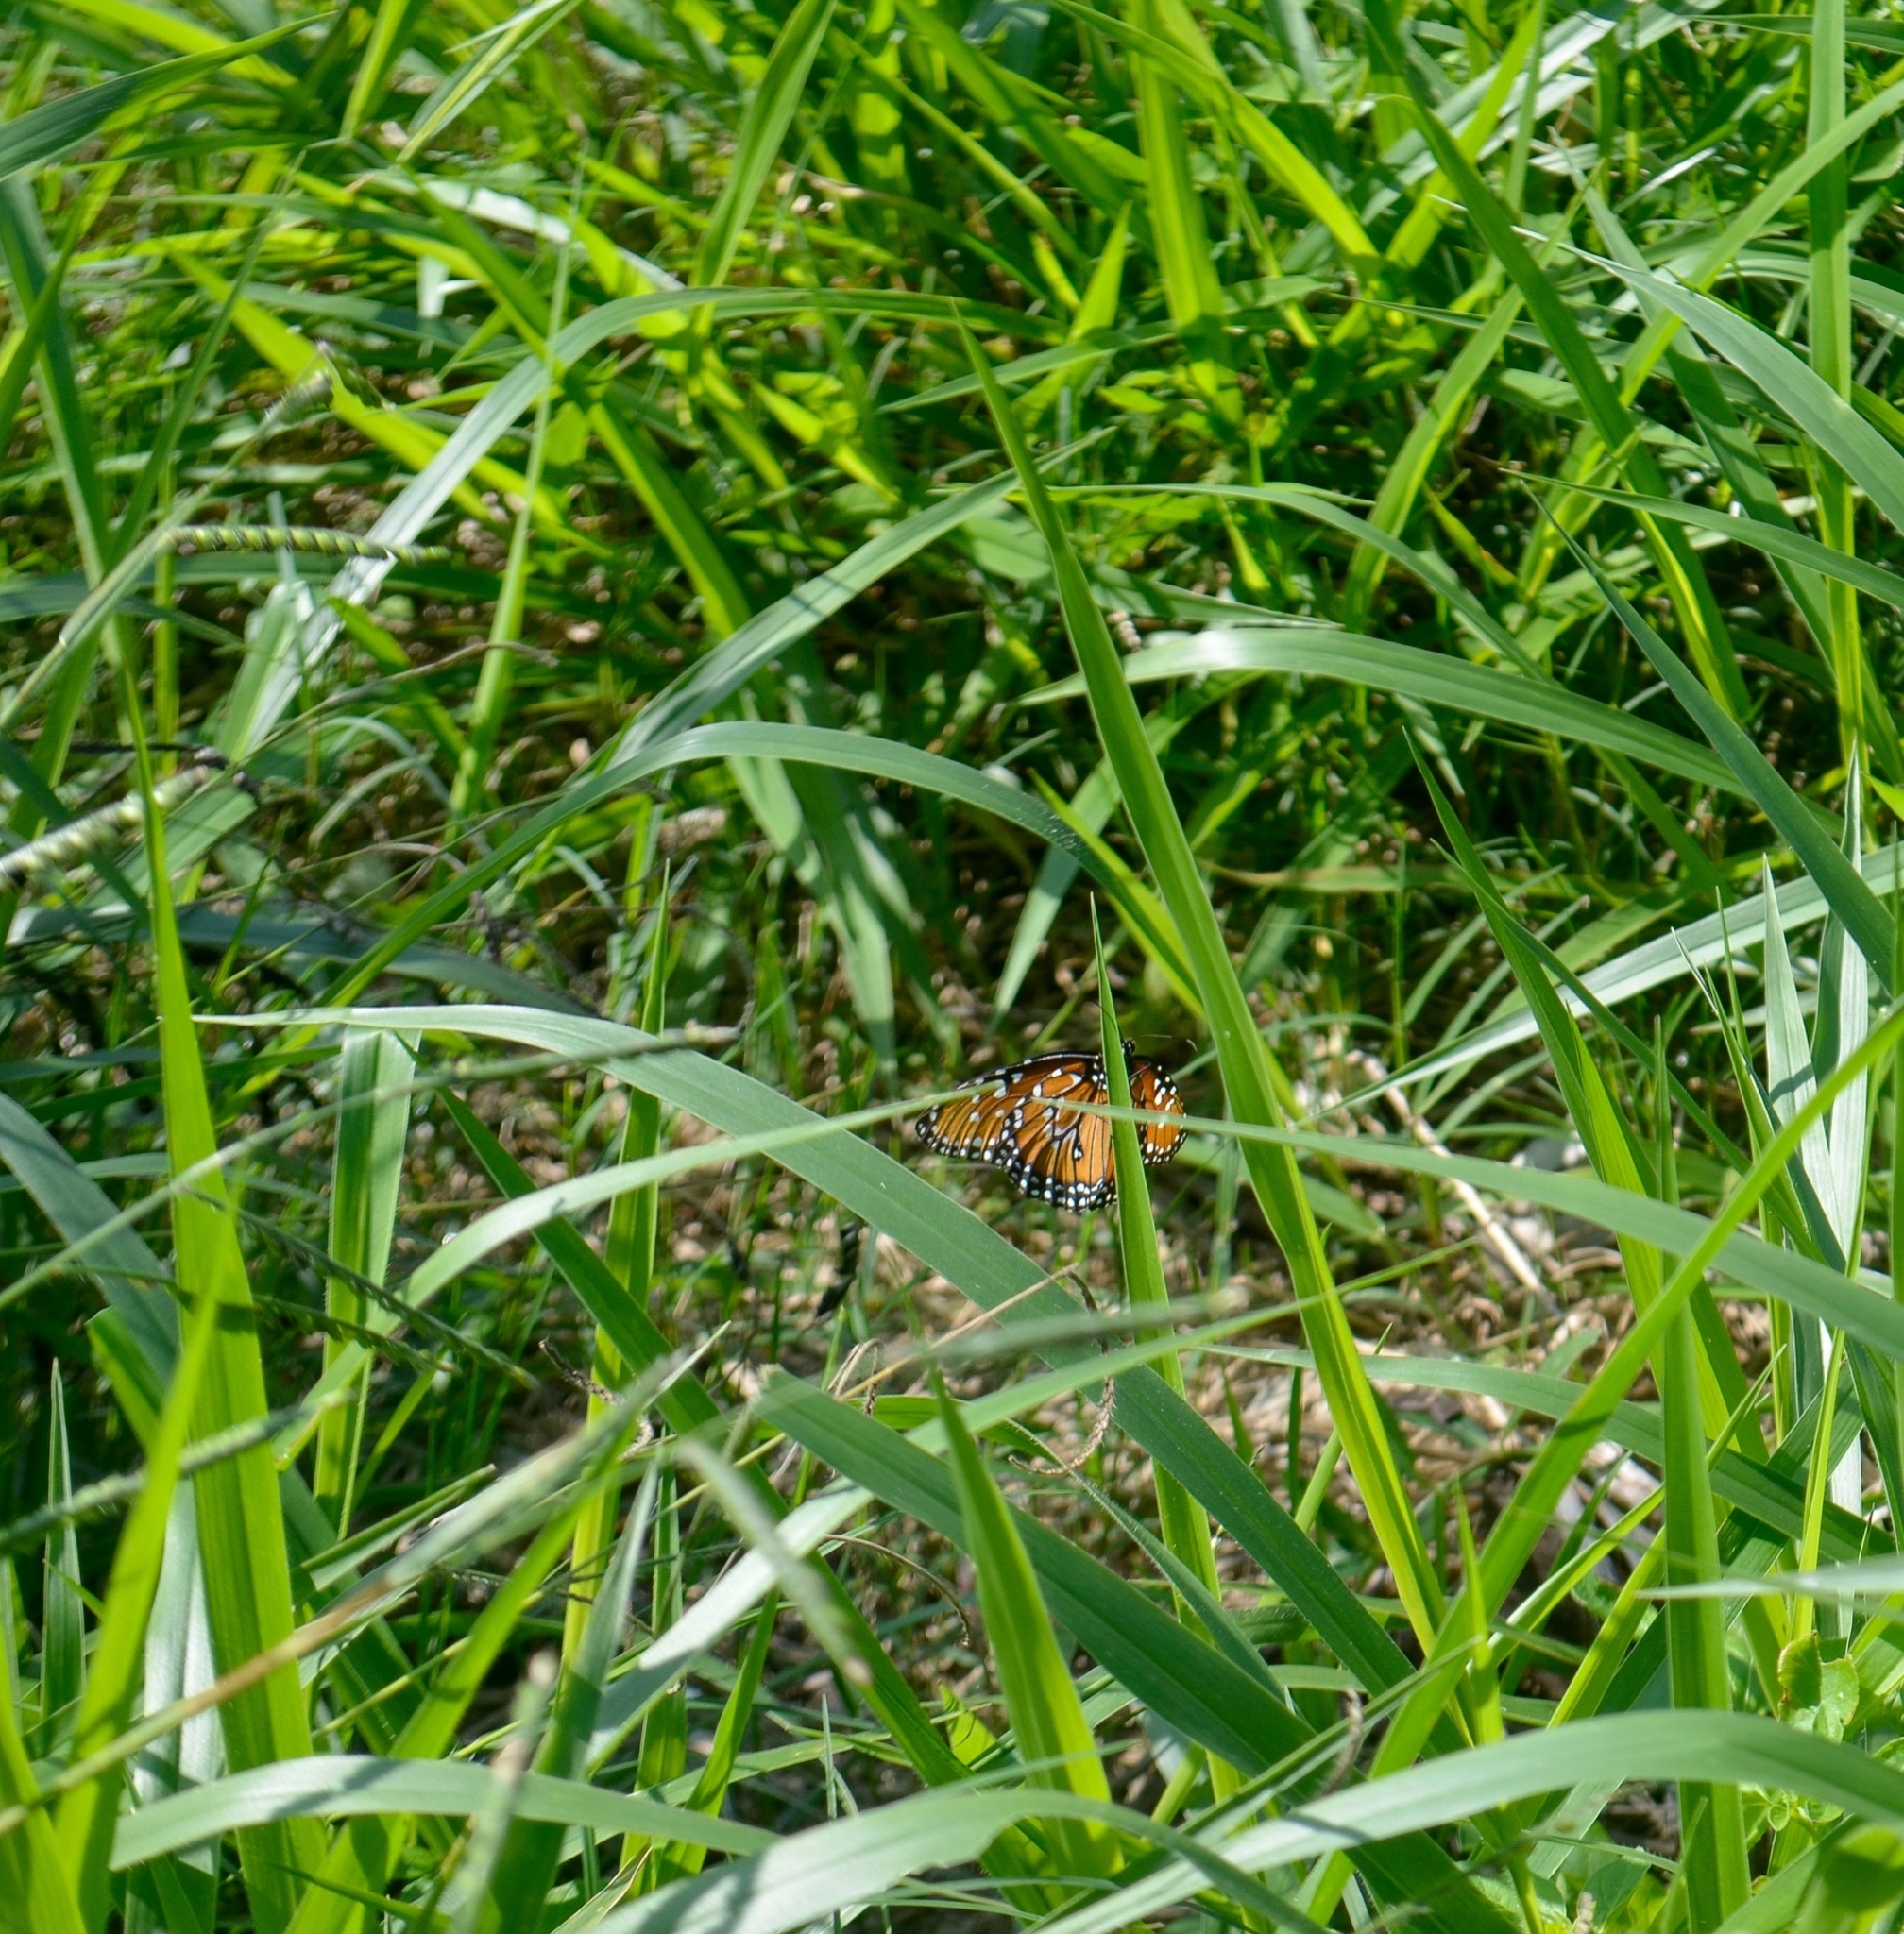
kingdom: Animalia
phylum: Arthropoda
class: Insecta
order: Lepidoptera
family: Nymphalidae
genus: Danaus
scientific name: Danaus gilippus
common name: Queen
